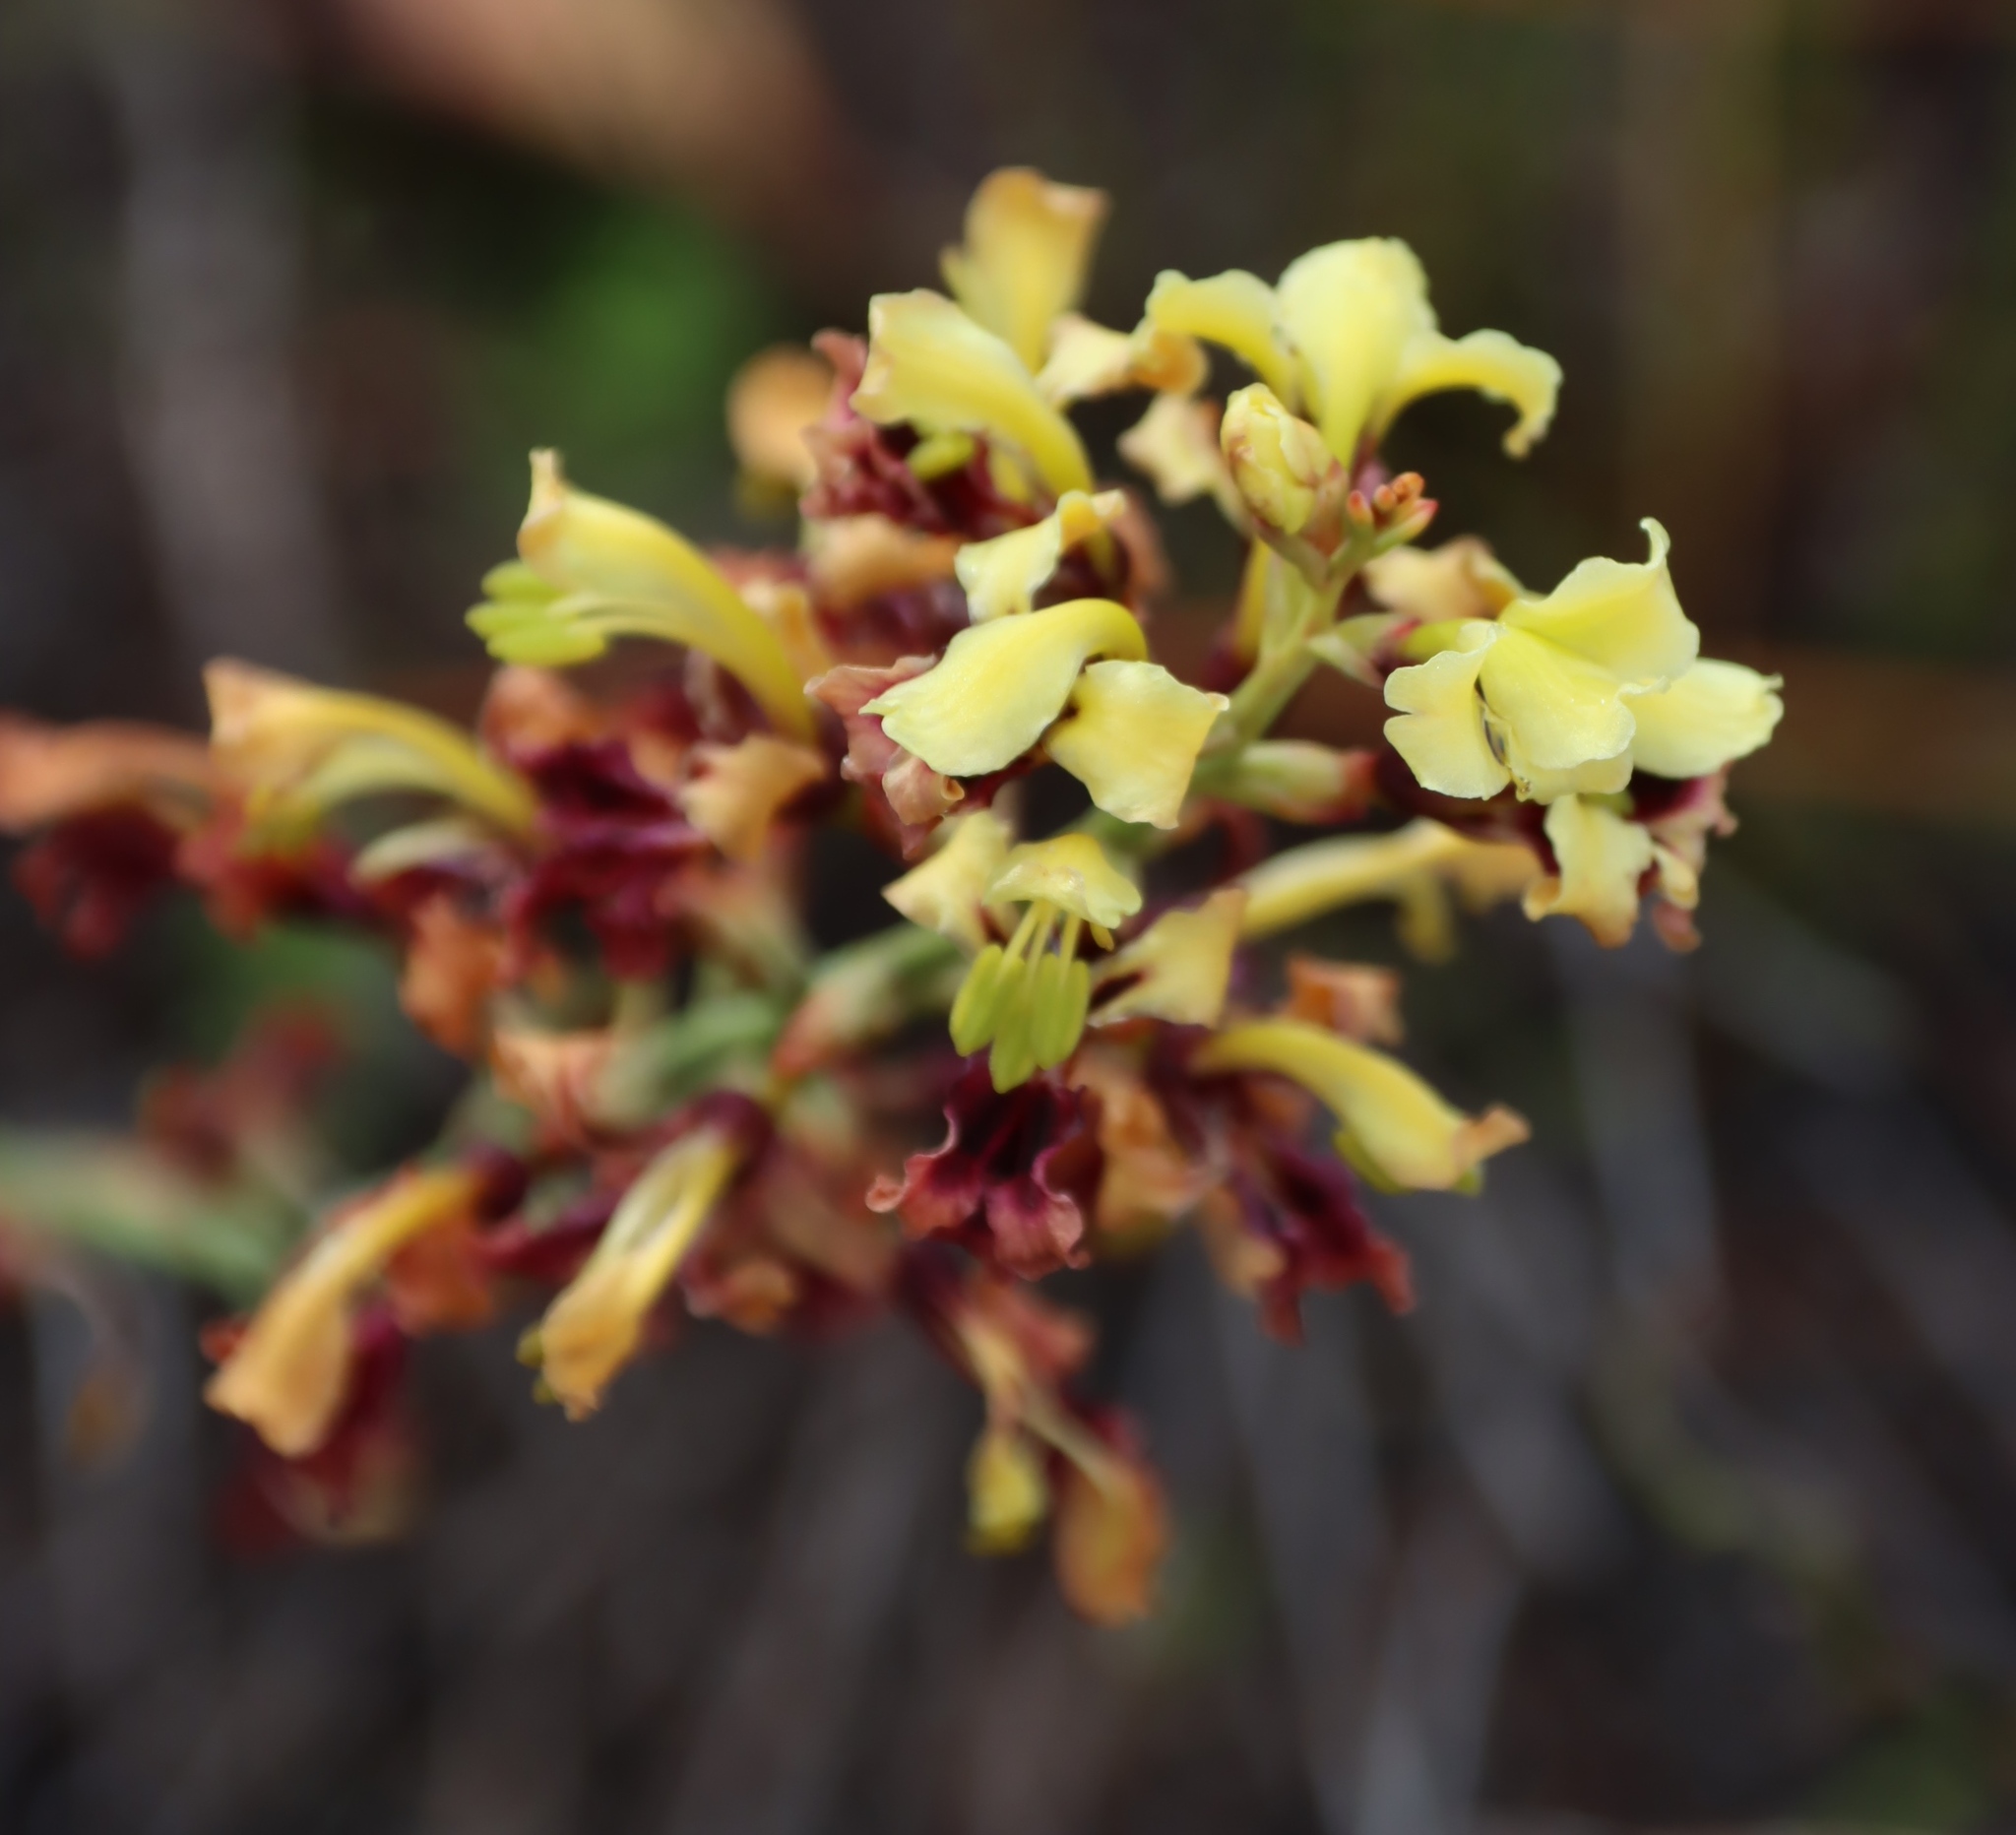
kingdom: Plantae
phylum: Tracheophyta
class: Liliopsida
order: Asparagales
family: Iridaceae
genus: Tritoniopsis
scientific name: Tritoniopsis parviflora
